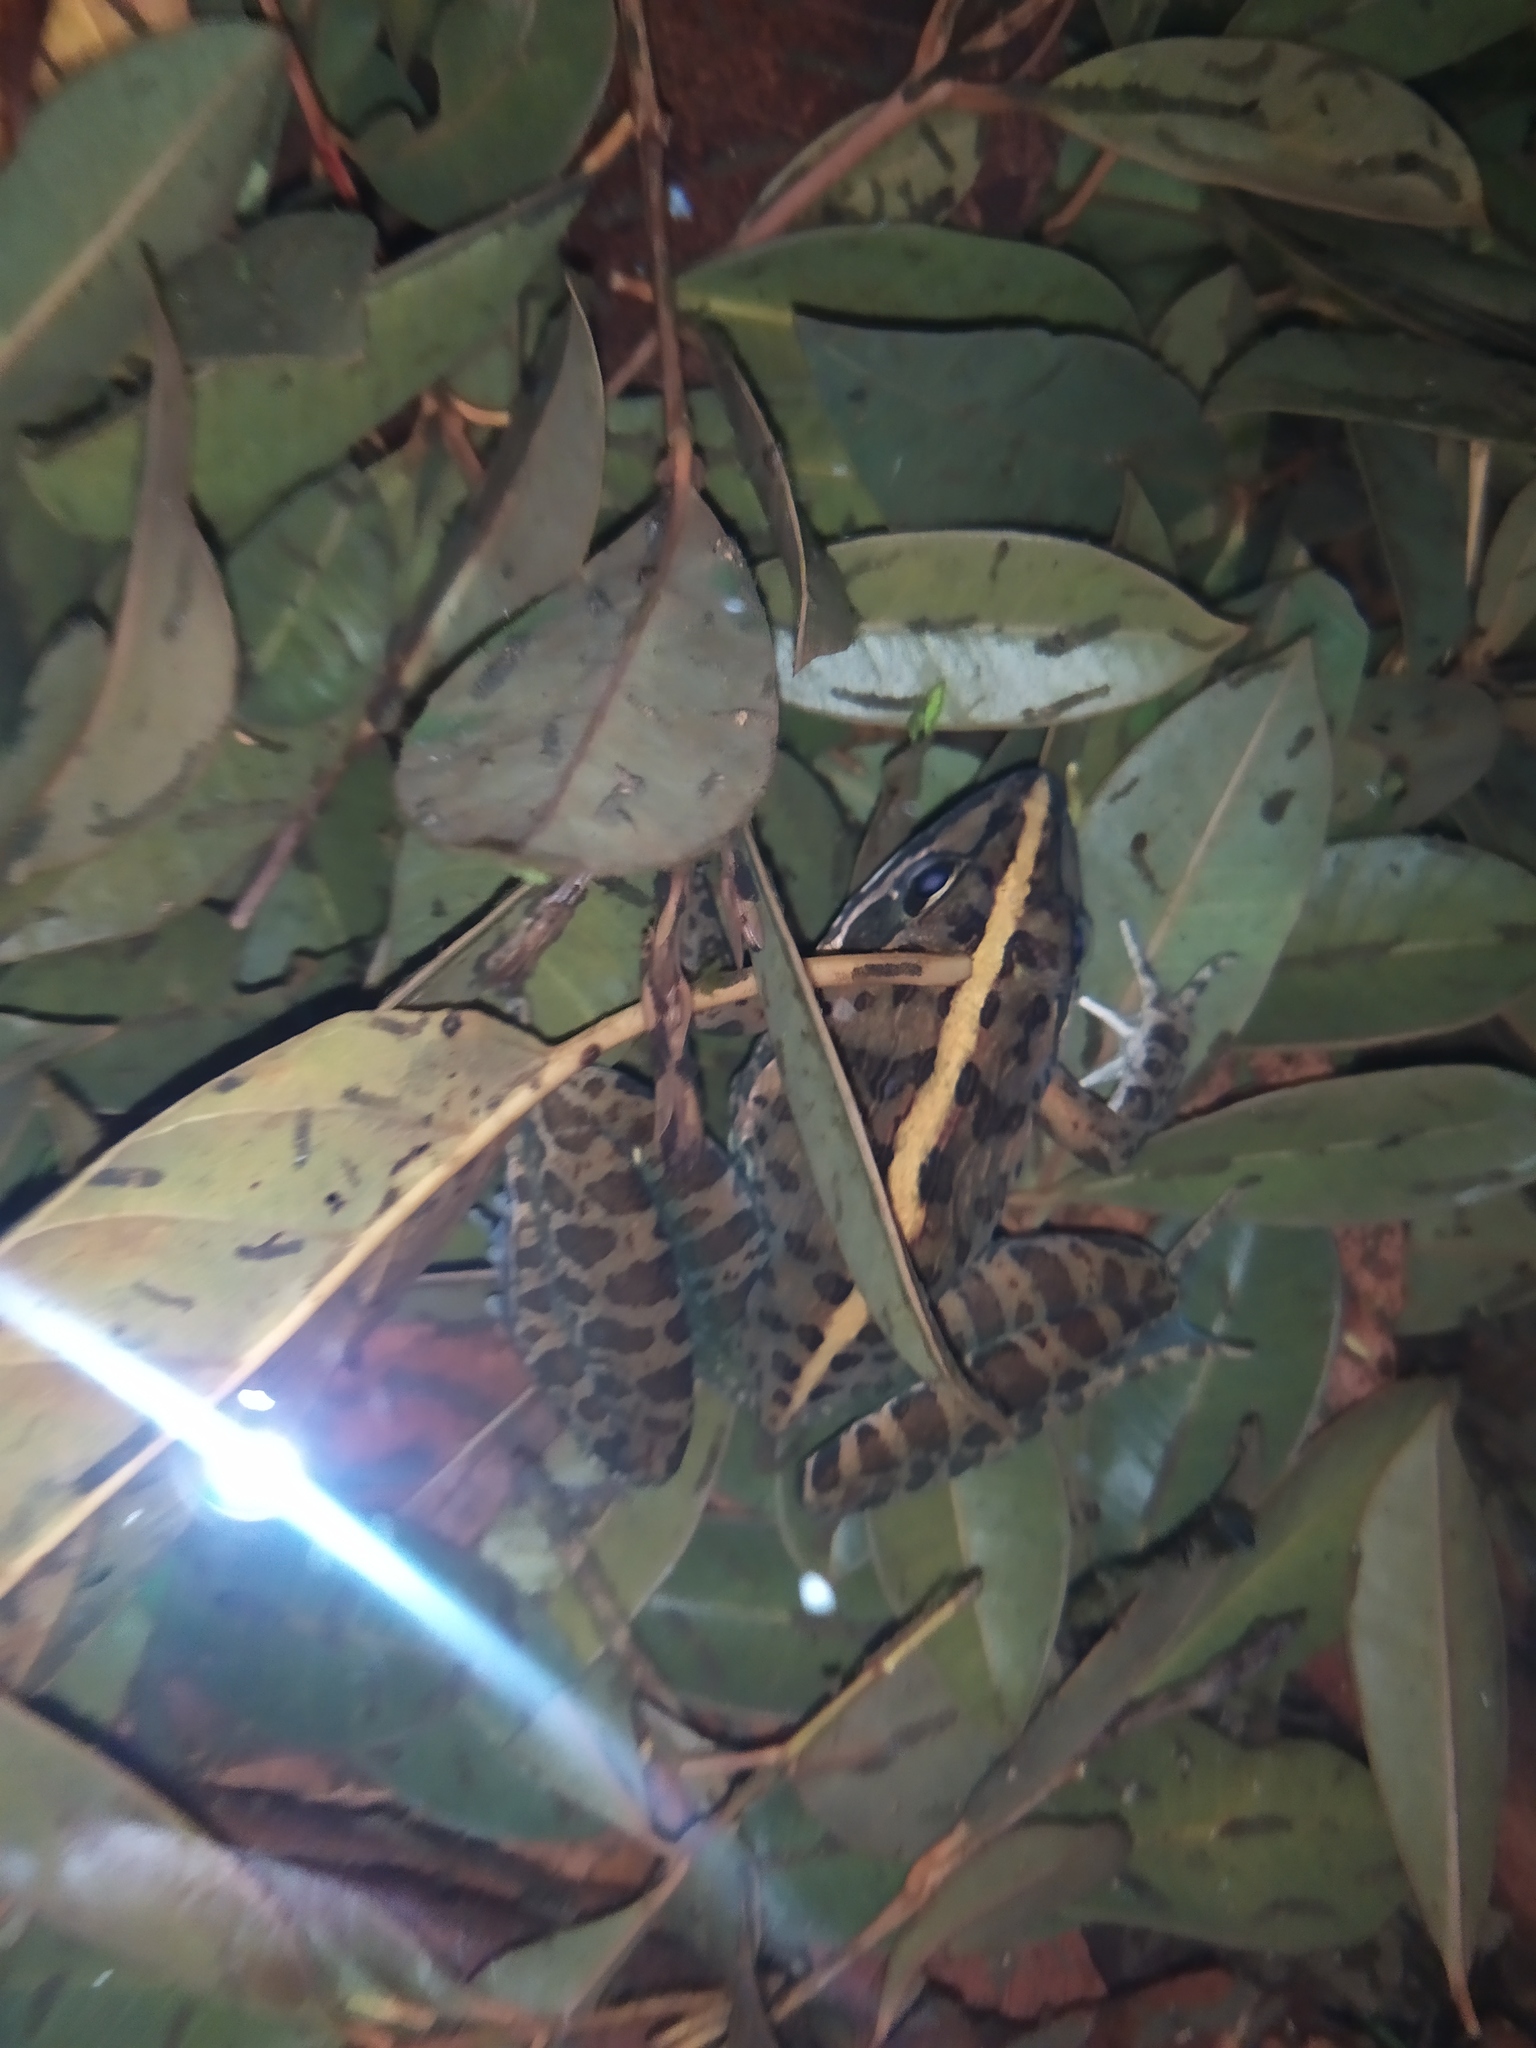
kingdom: Animalia
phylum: Chordata
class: Amphibia
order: Anura
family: Pyxicephalidae
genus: Amietia
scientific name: Amietia delalandii
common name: Delalande's river frog
